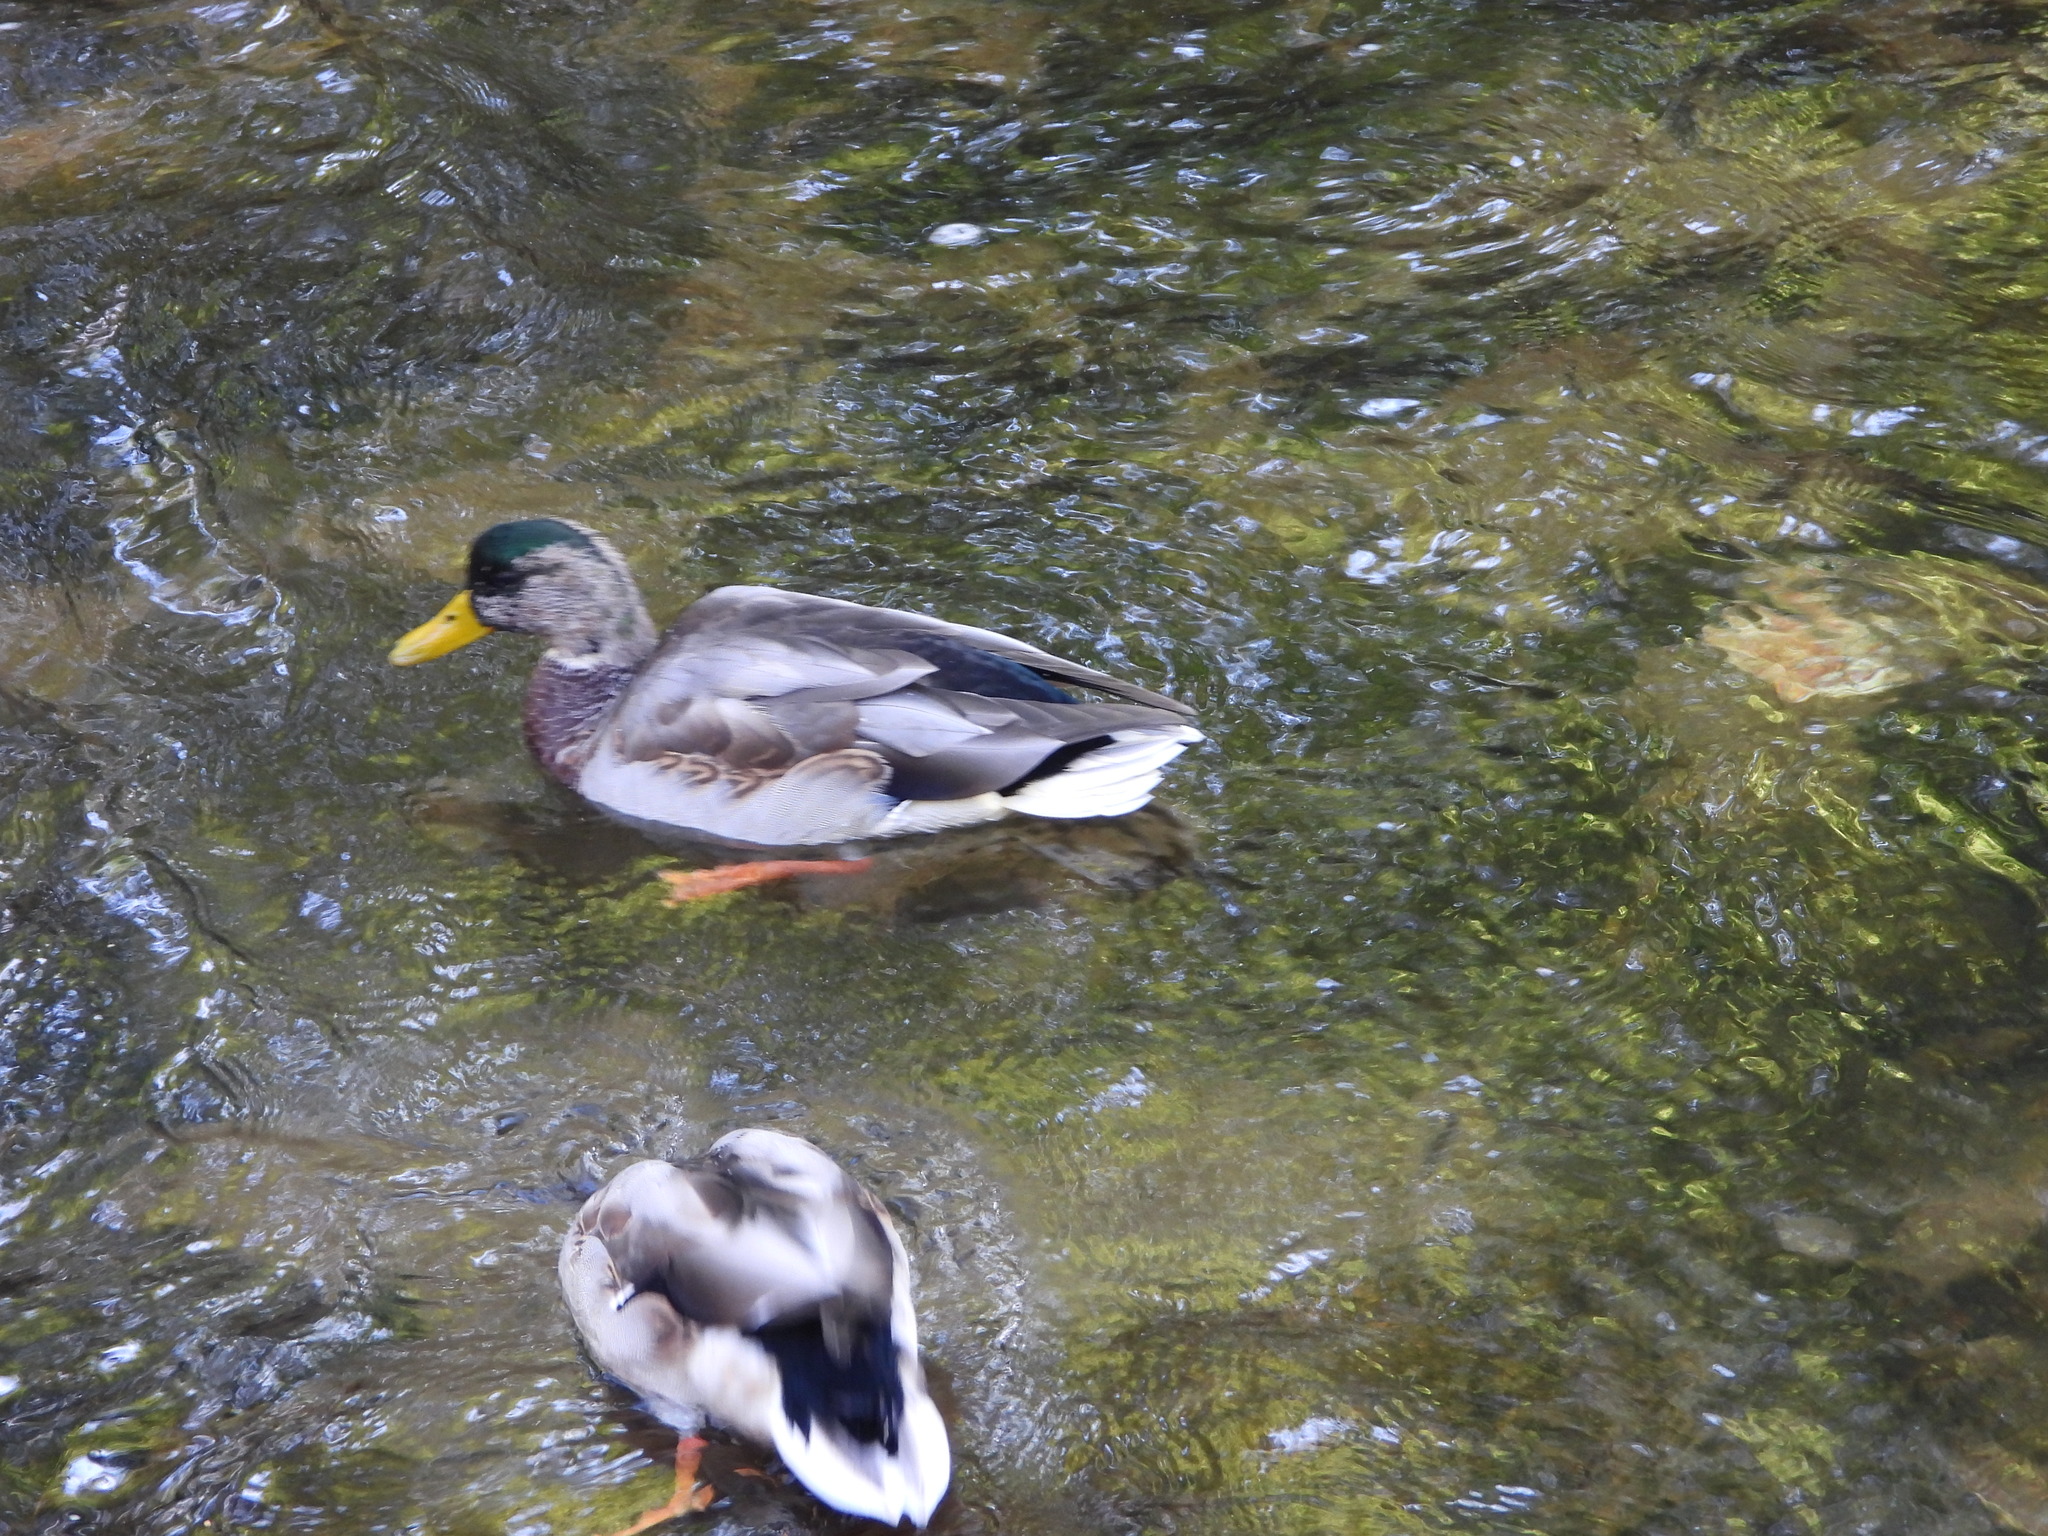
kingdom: Animalia
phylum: Chordata
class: Aves
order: Anseriformes
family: Anatidae
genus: Anas
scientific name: Anas platyrhynchos
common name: Mallard
